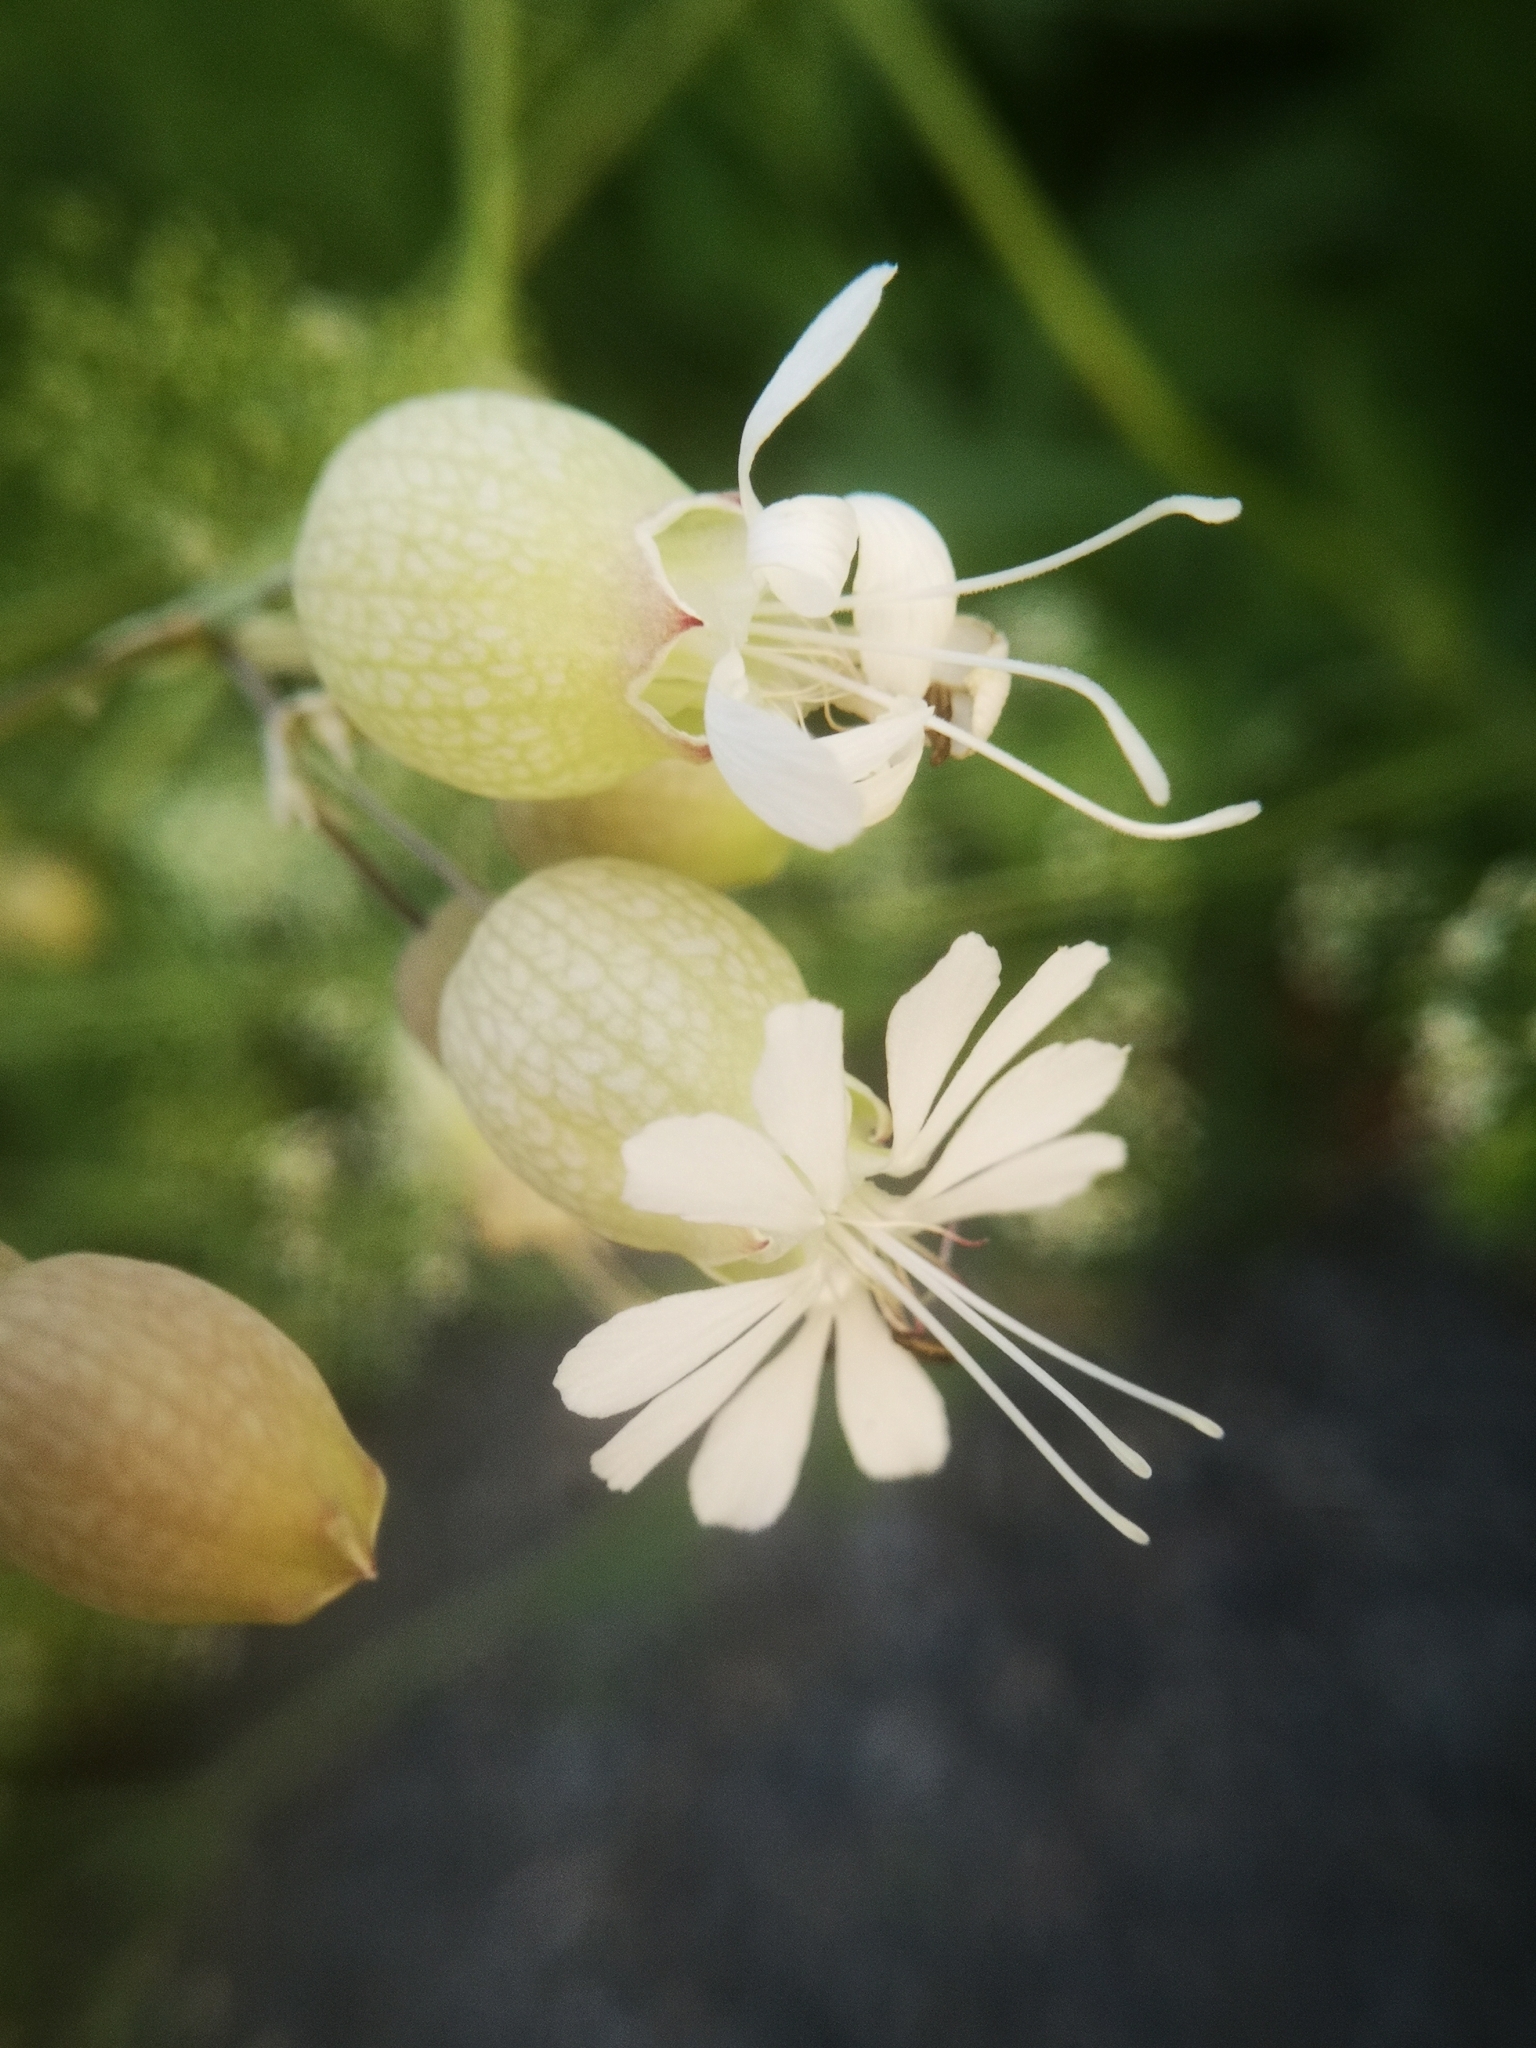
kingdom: Plantae
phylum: Tracheophyta
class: Magnoliopsida
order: Caryophyllales
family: Caryophyllaceae
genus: Silene
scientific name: Silene vulgaris
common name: Bladder campion
